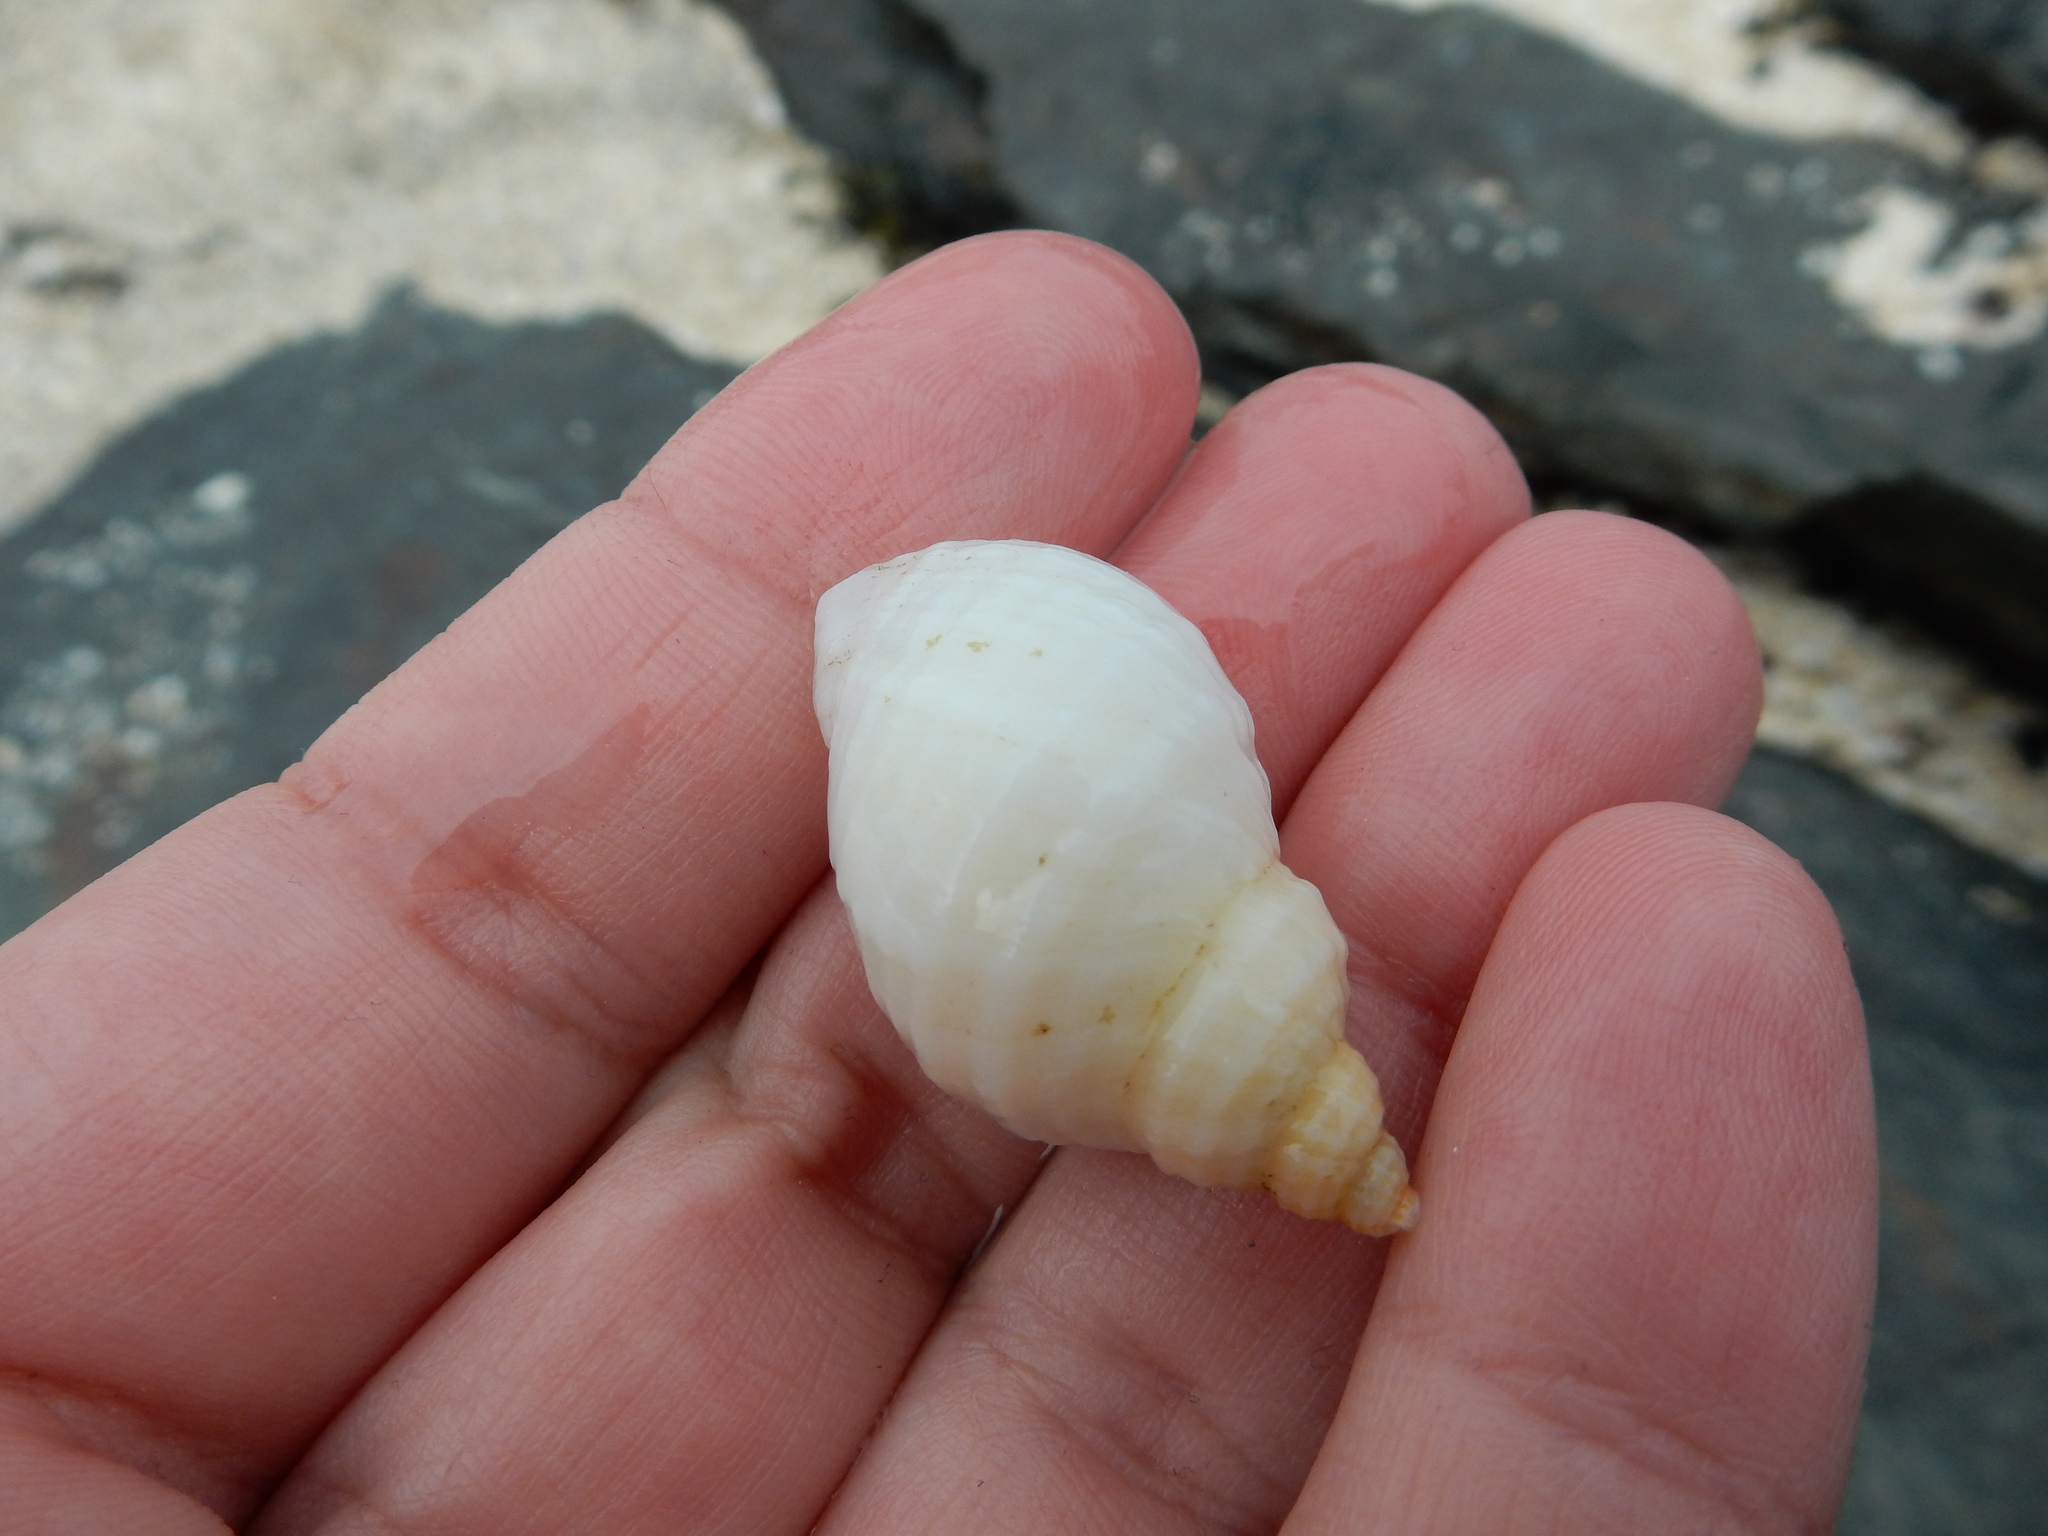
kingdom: Animalia
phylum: Mollusca
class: Gastropoda
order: Neogastropoda
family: Muricidae
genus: Nucella
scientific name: Nucella lapillus
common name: Dog whelk
